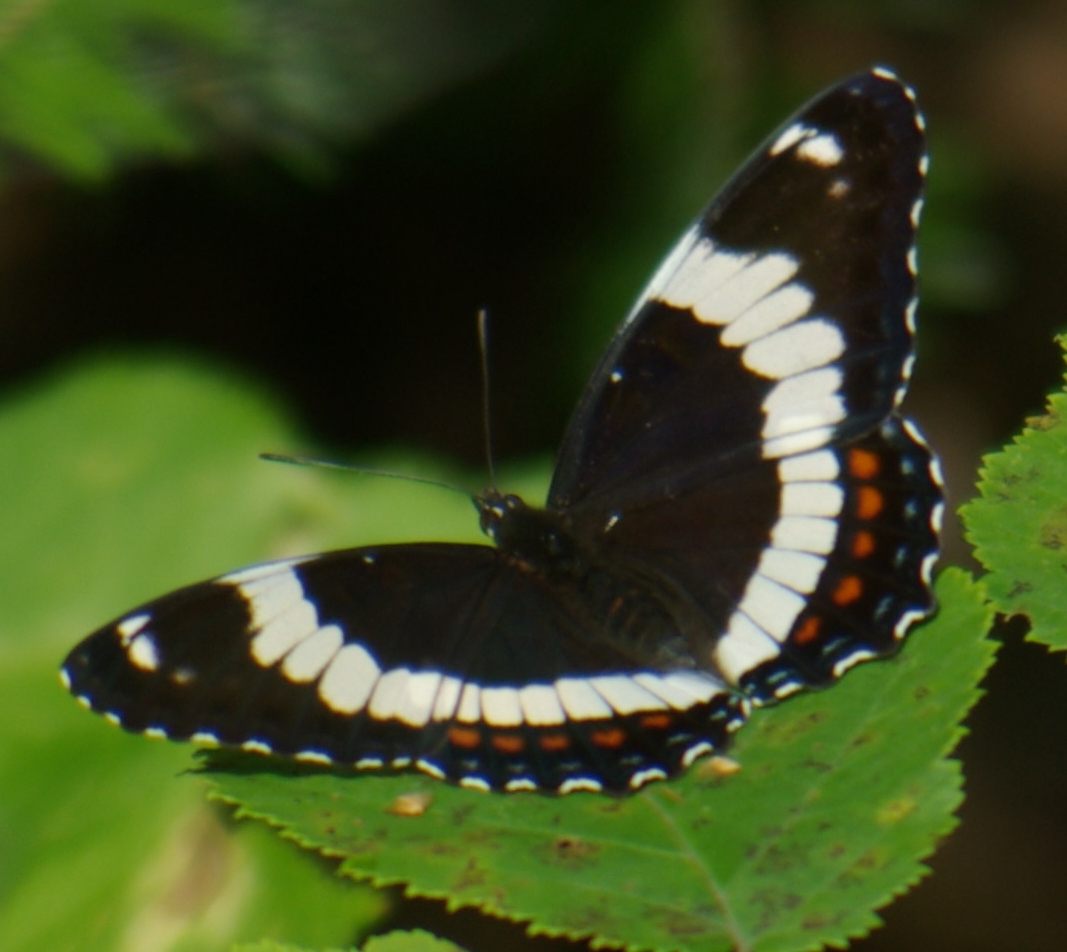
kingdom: Animalia
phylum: Arthropoda
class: Insecta
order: Lepidoptera
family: Nymphalidae
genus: Limenitis
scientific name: Limenitis arthemis
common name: Red-spotted admiral
